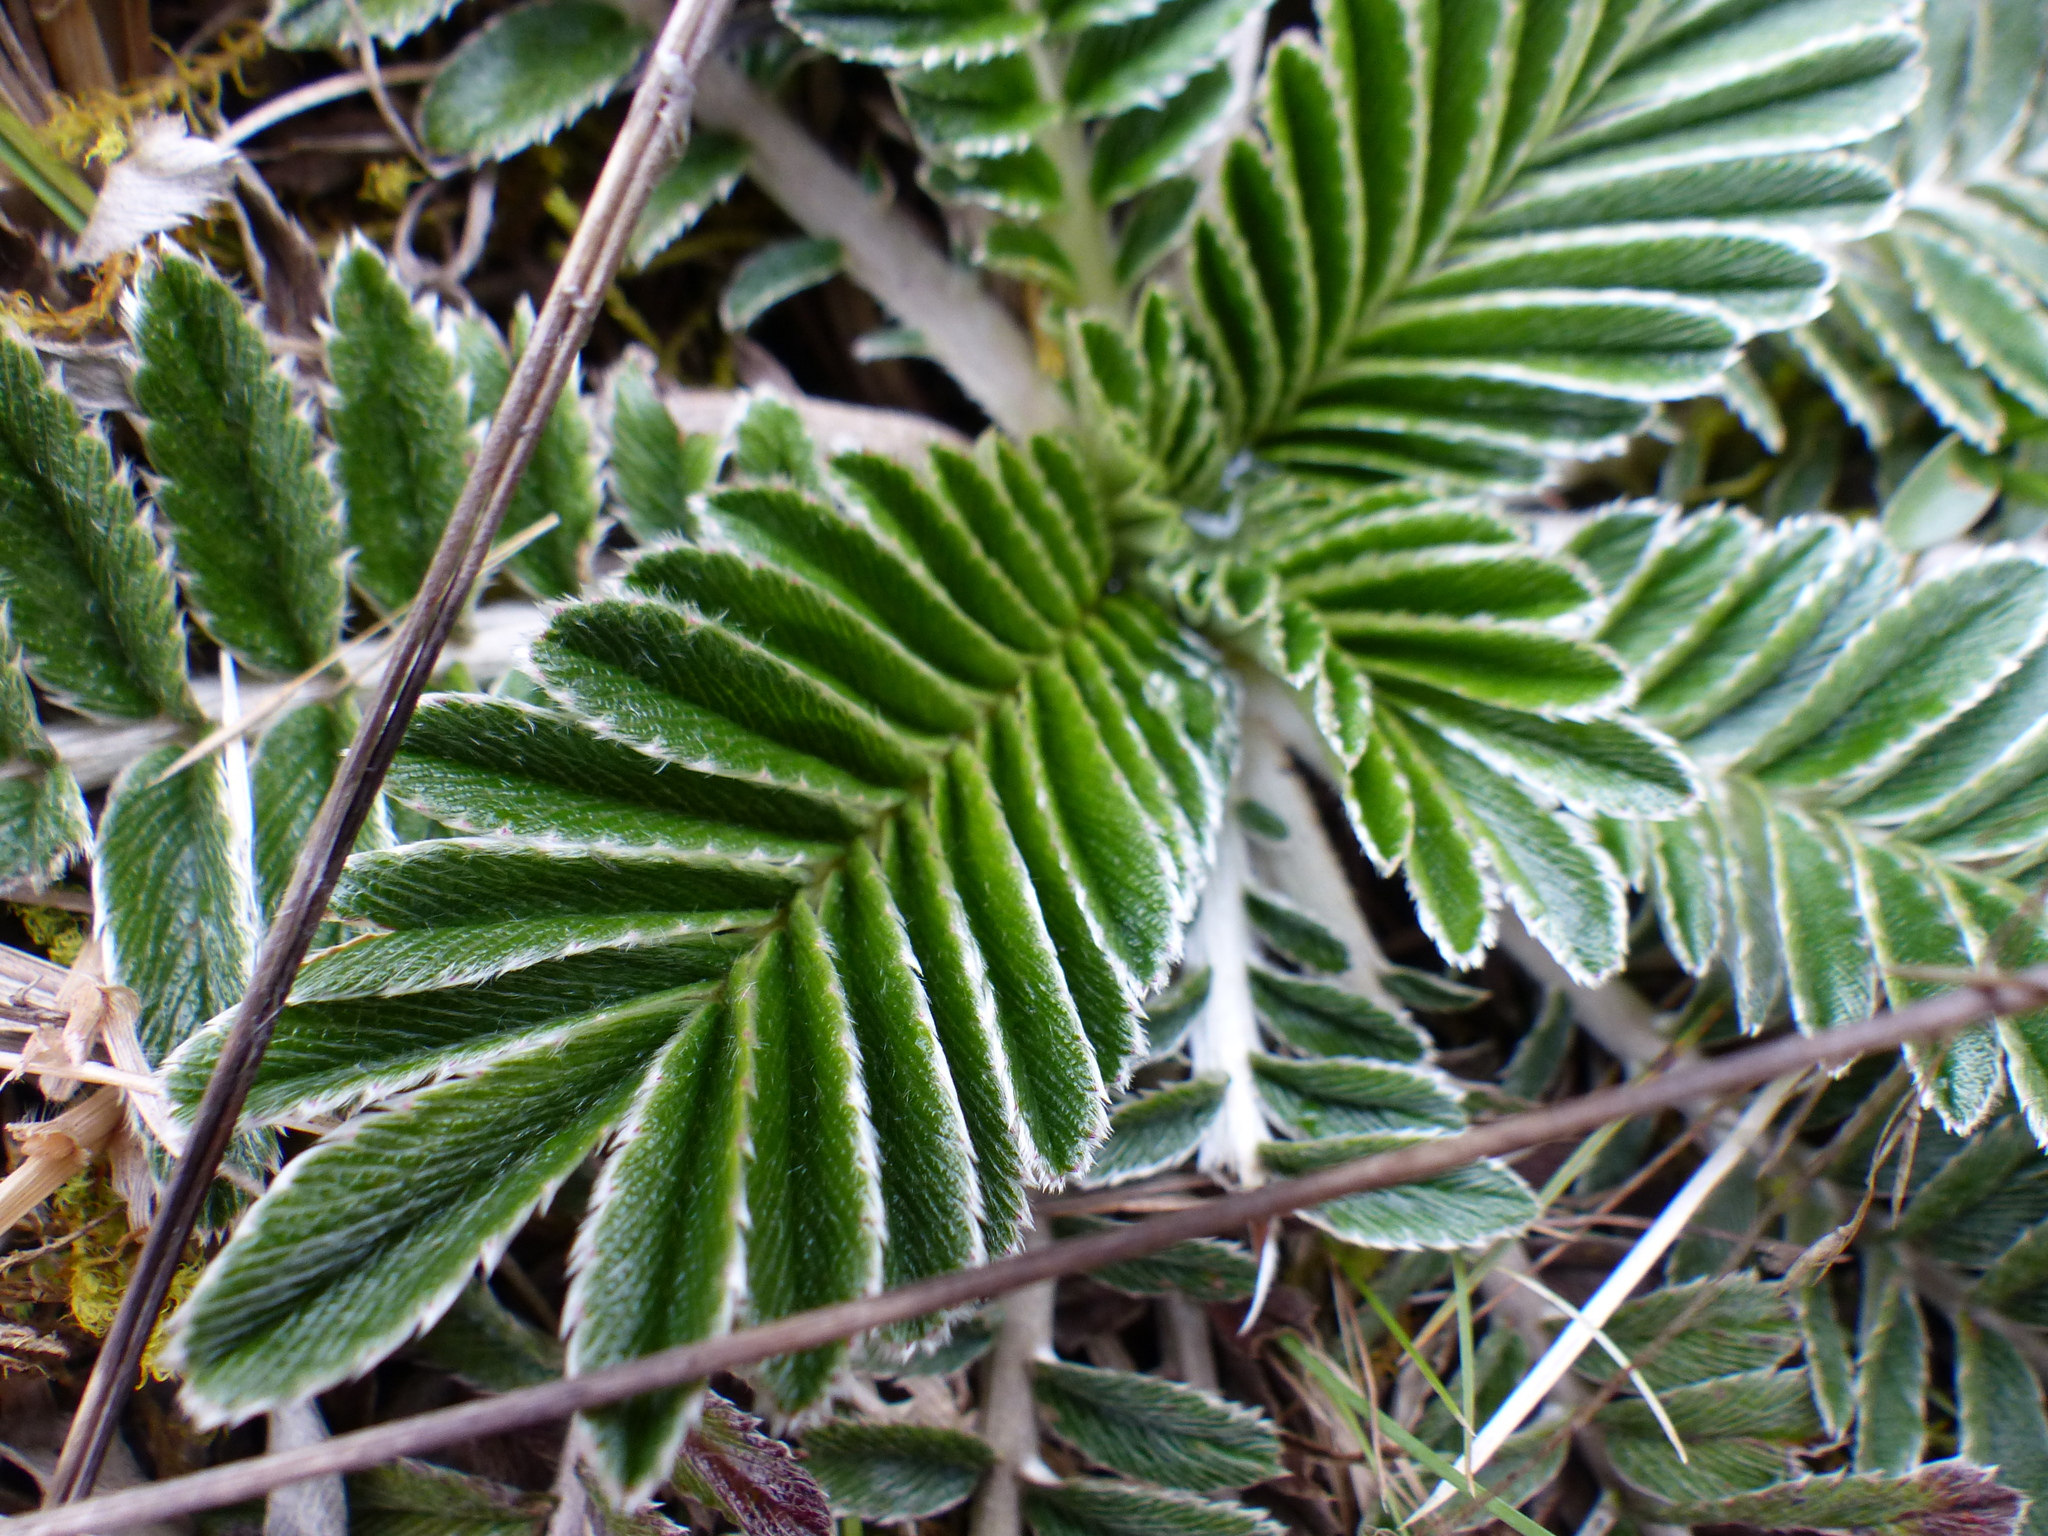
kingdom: Plantae
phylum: Tracheophyta
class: Magnoliopsida
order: Rosales
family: Rosaceae
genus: Acaena
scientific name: Acaena cylindristachya
